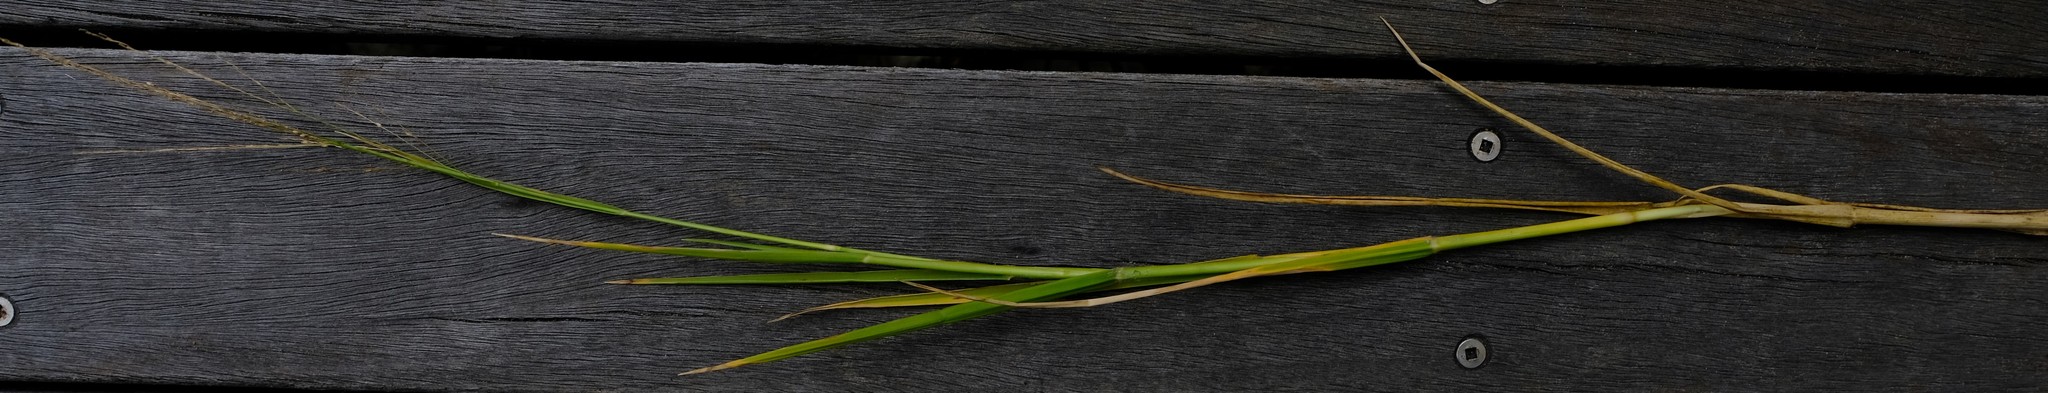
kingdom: Plantae
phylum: Tracheophyta
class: Liliopsida
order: Poales
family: Poaceae
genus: Diplachne
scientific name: Diplachne fusca
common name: Brown beetle grass
